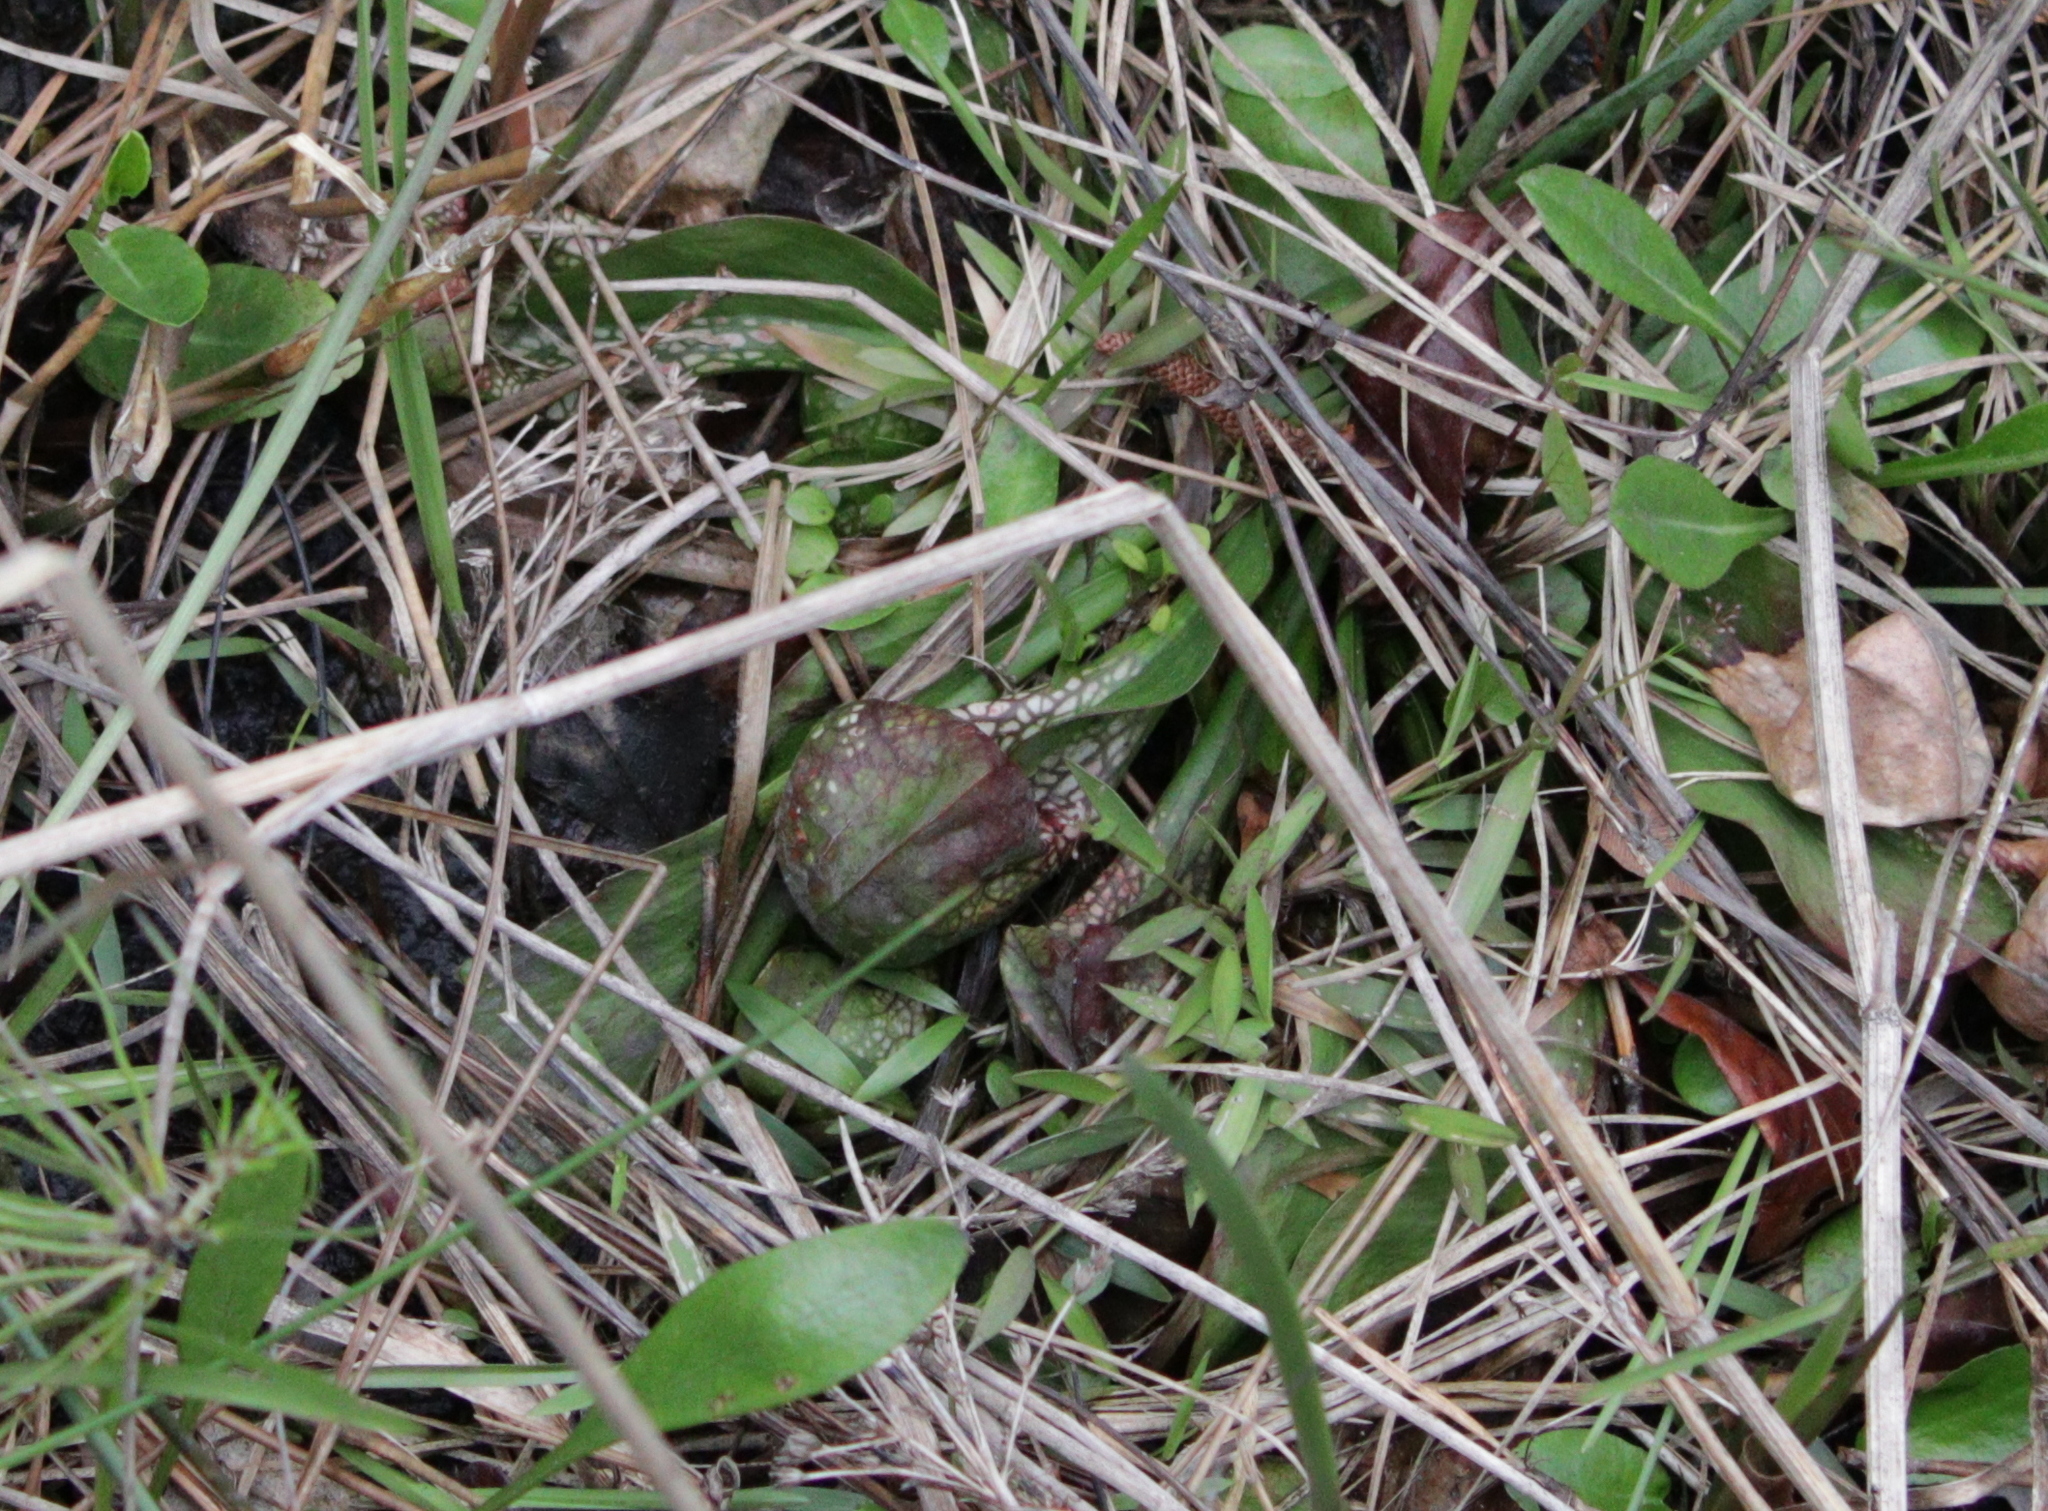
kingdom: Plantae
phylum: Tracheophyta
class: Magnoliopsida
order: Ericales
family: Sarraceniaceae
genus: Sarracenia
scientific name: Sarracenia psittacina
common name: Parrot pitcherplant
